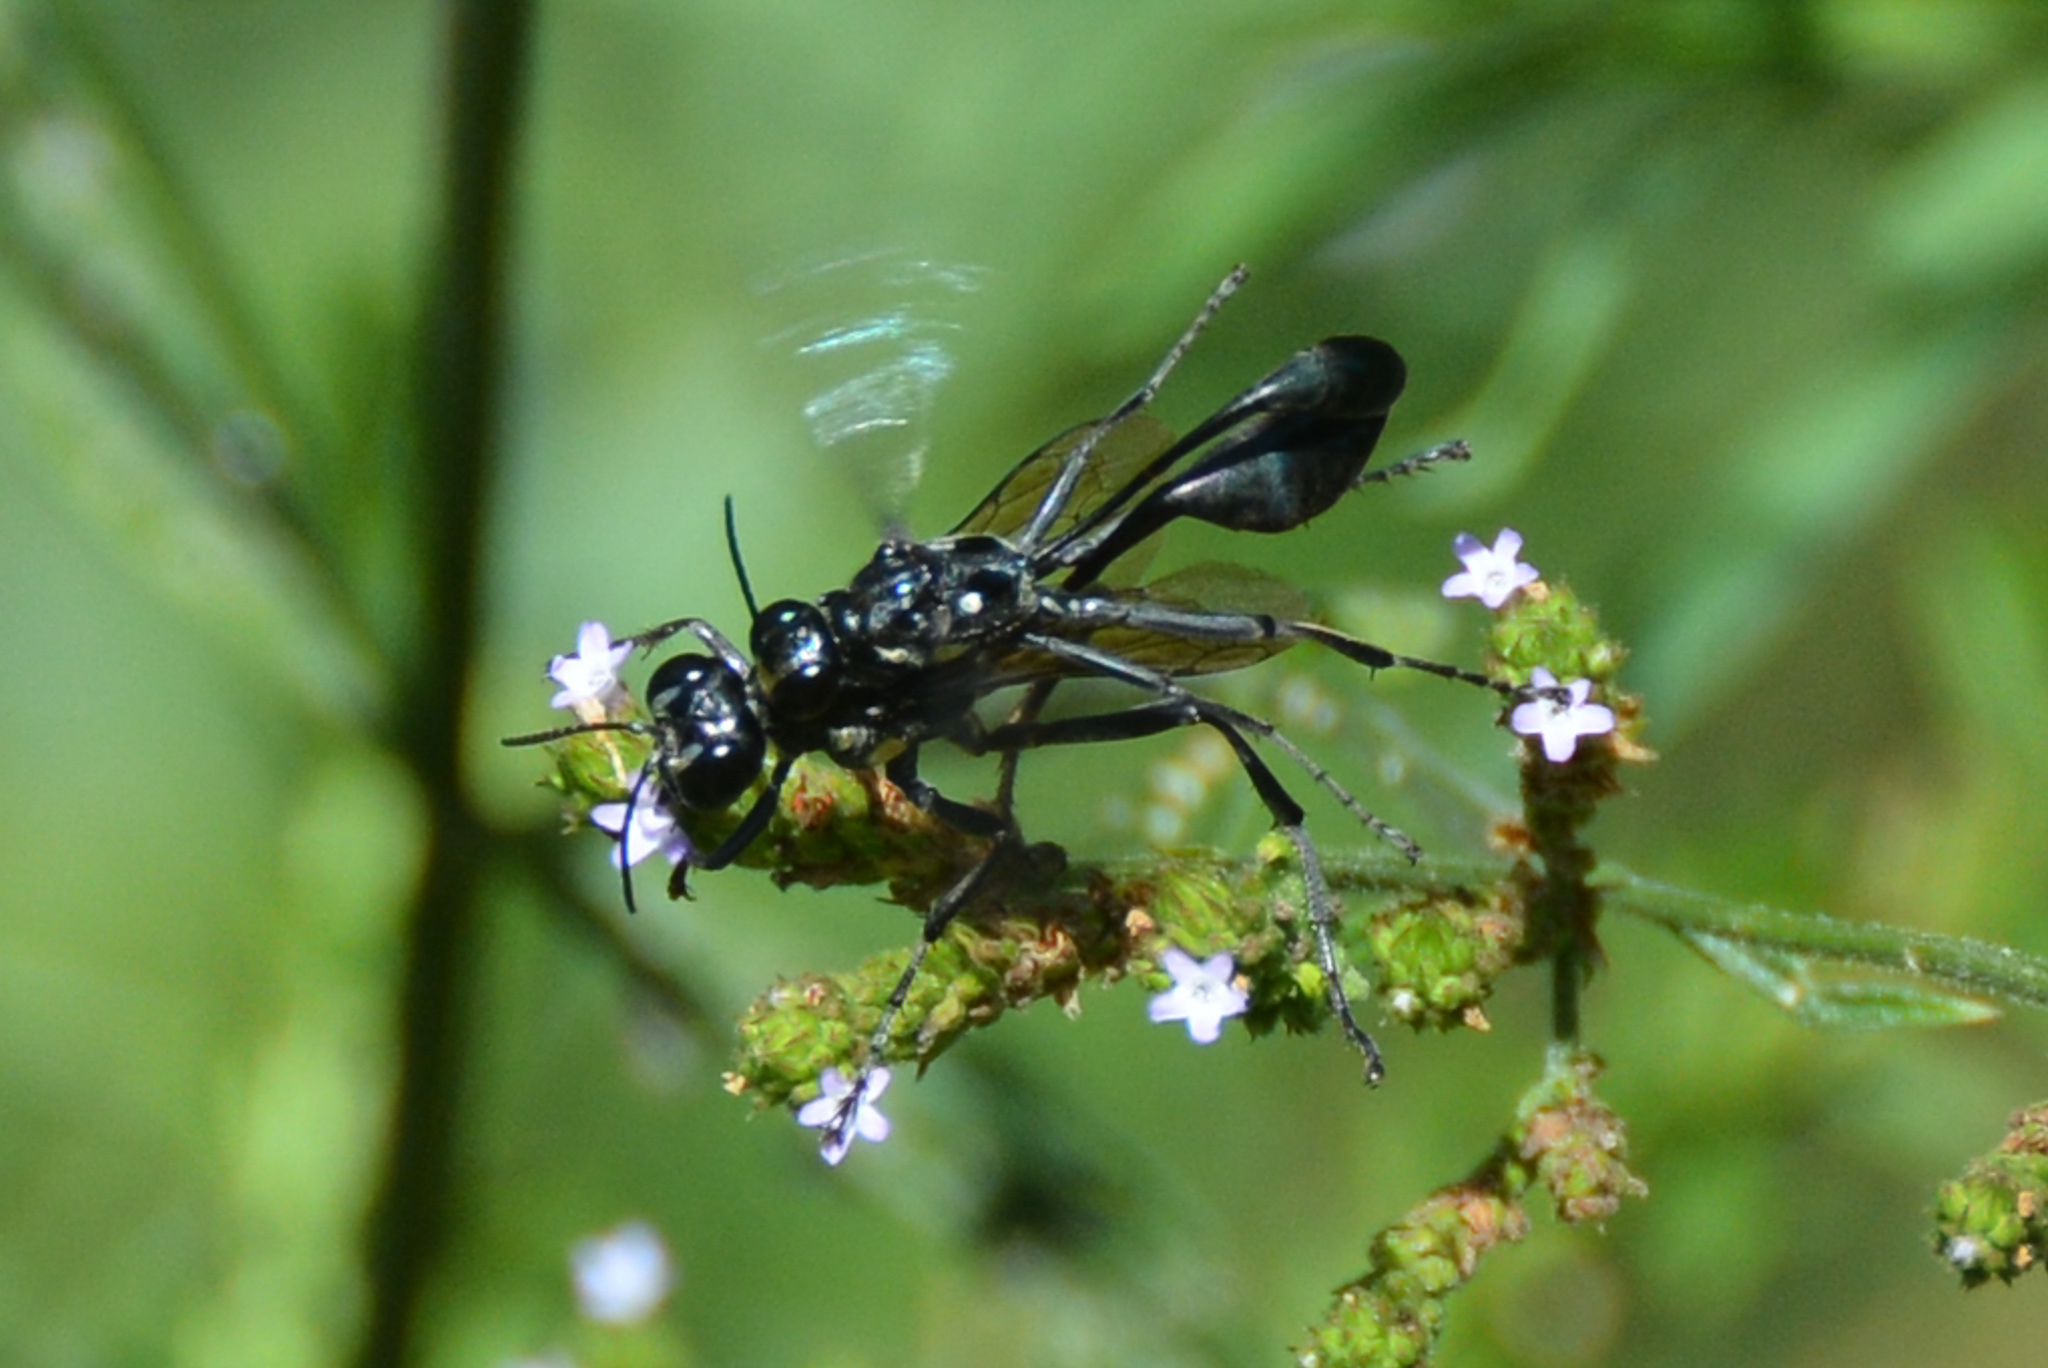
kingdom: Animalia
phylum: Arthropoda
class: Insecta
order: Hymenoptera
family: Sphecidae
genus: Eremnophila
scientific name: Eremnophila aureonotata
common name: Gold-marked thread-waisted wasp
